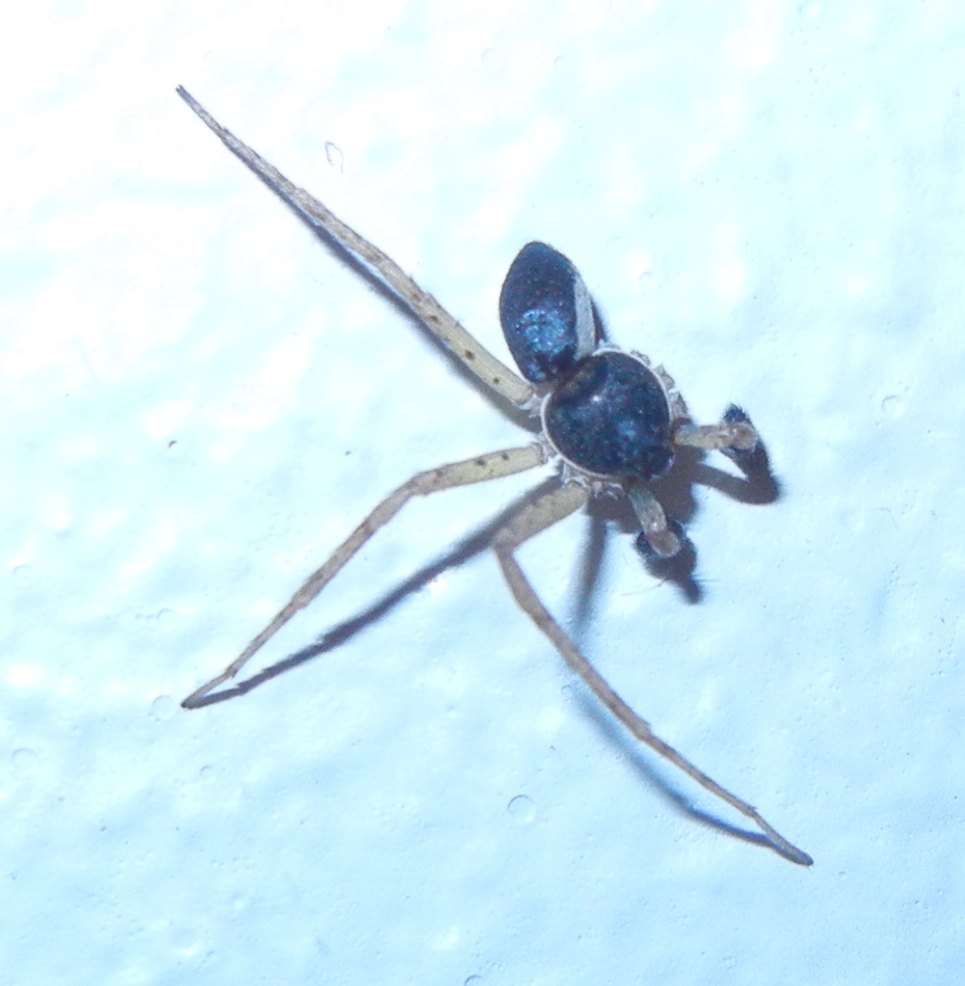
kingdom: Animalia
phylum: Arthropoda
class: Arachnida
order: Araneae
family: Philodromidae
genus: Philodromus
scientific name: Philodromus dispar
